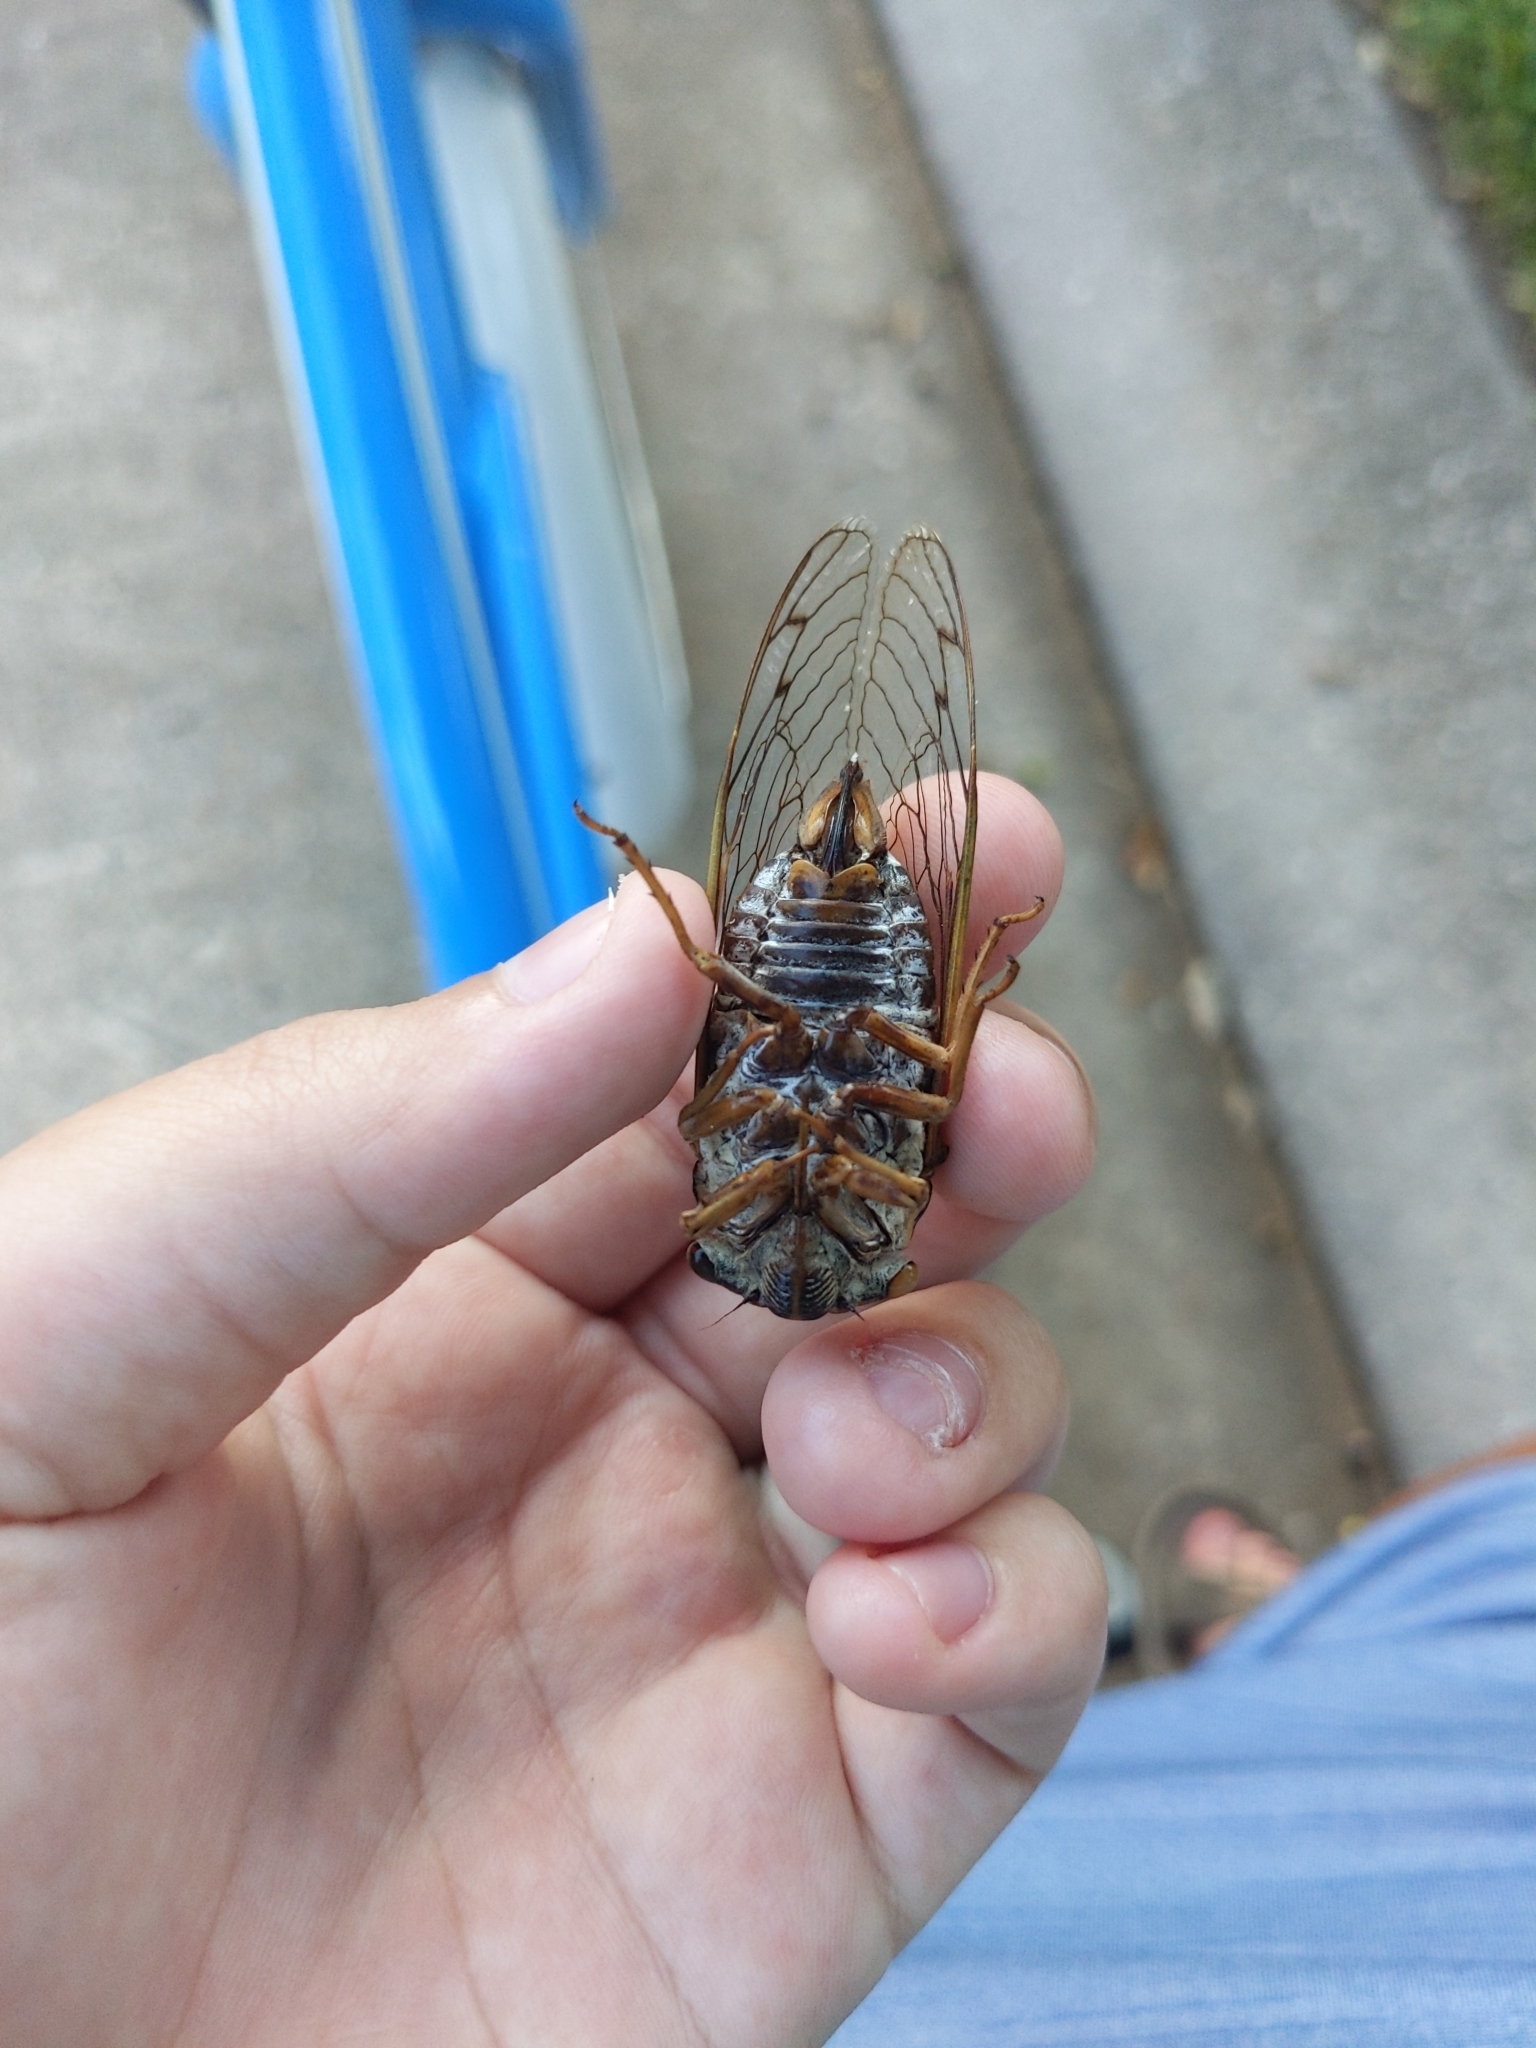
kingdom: Animalia
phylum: Arthropoda
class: Insecta
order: Hemiptera
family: Cicadidae
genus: Megatibicen
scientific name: Megatibicen resh
